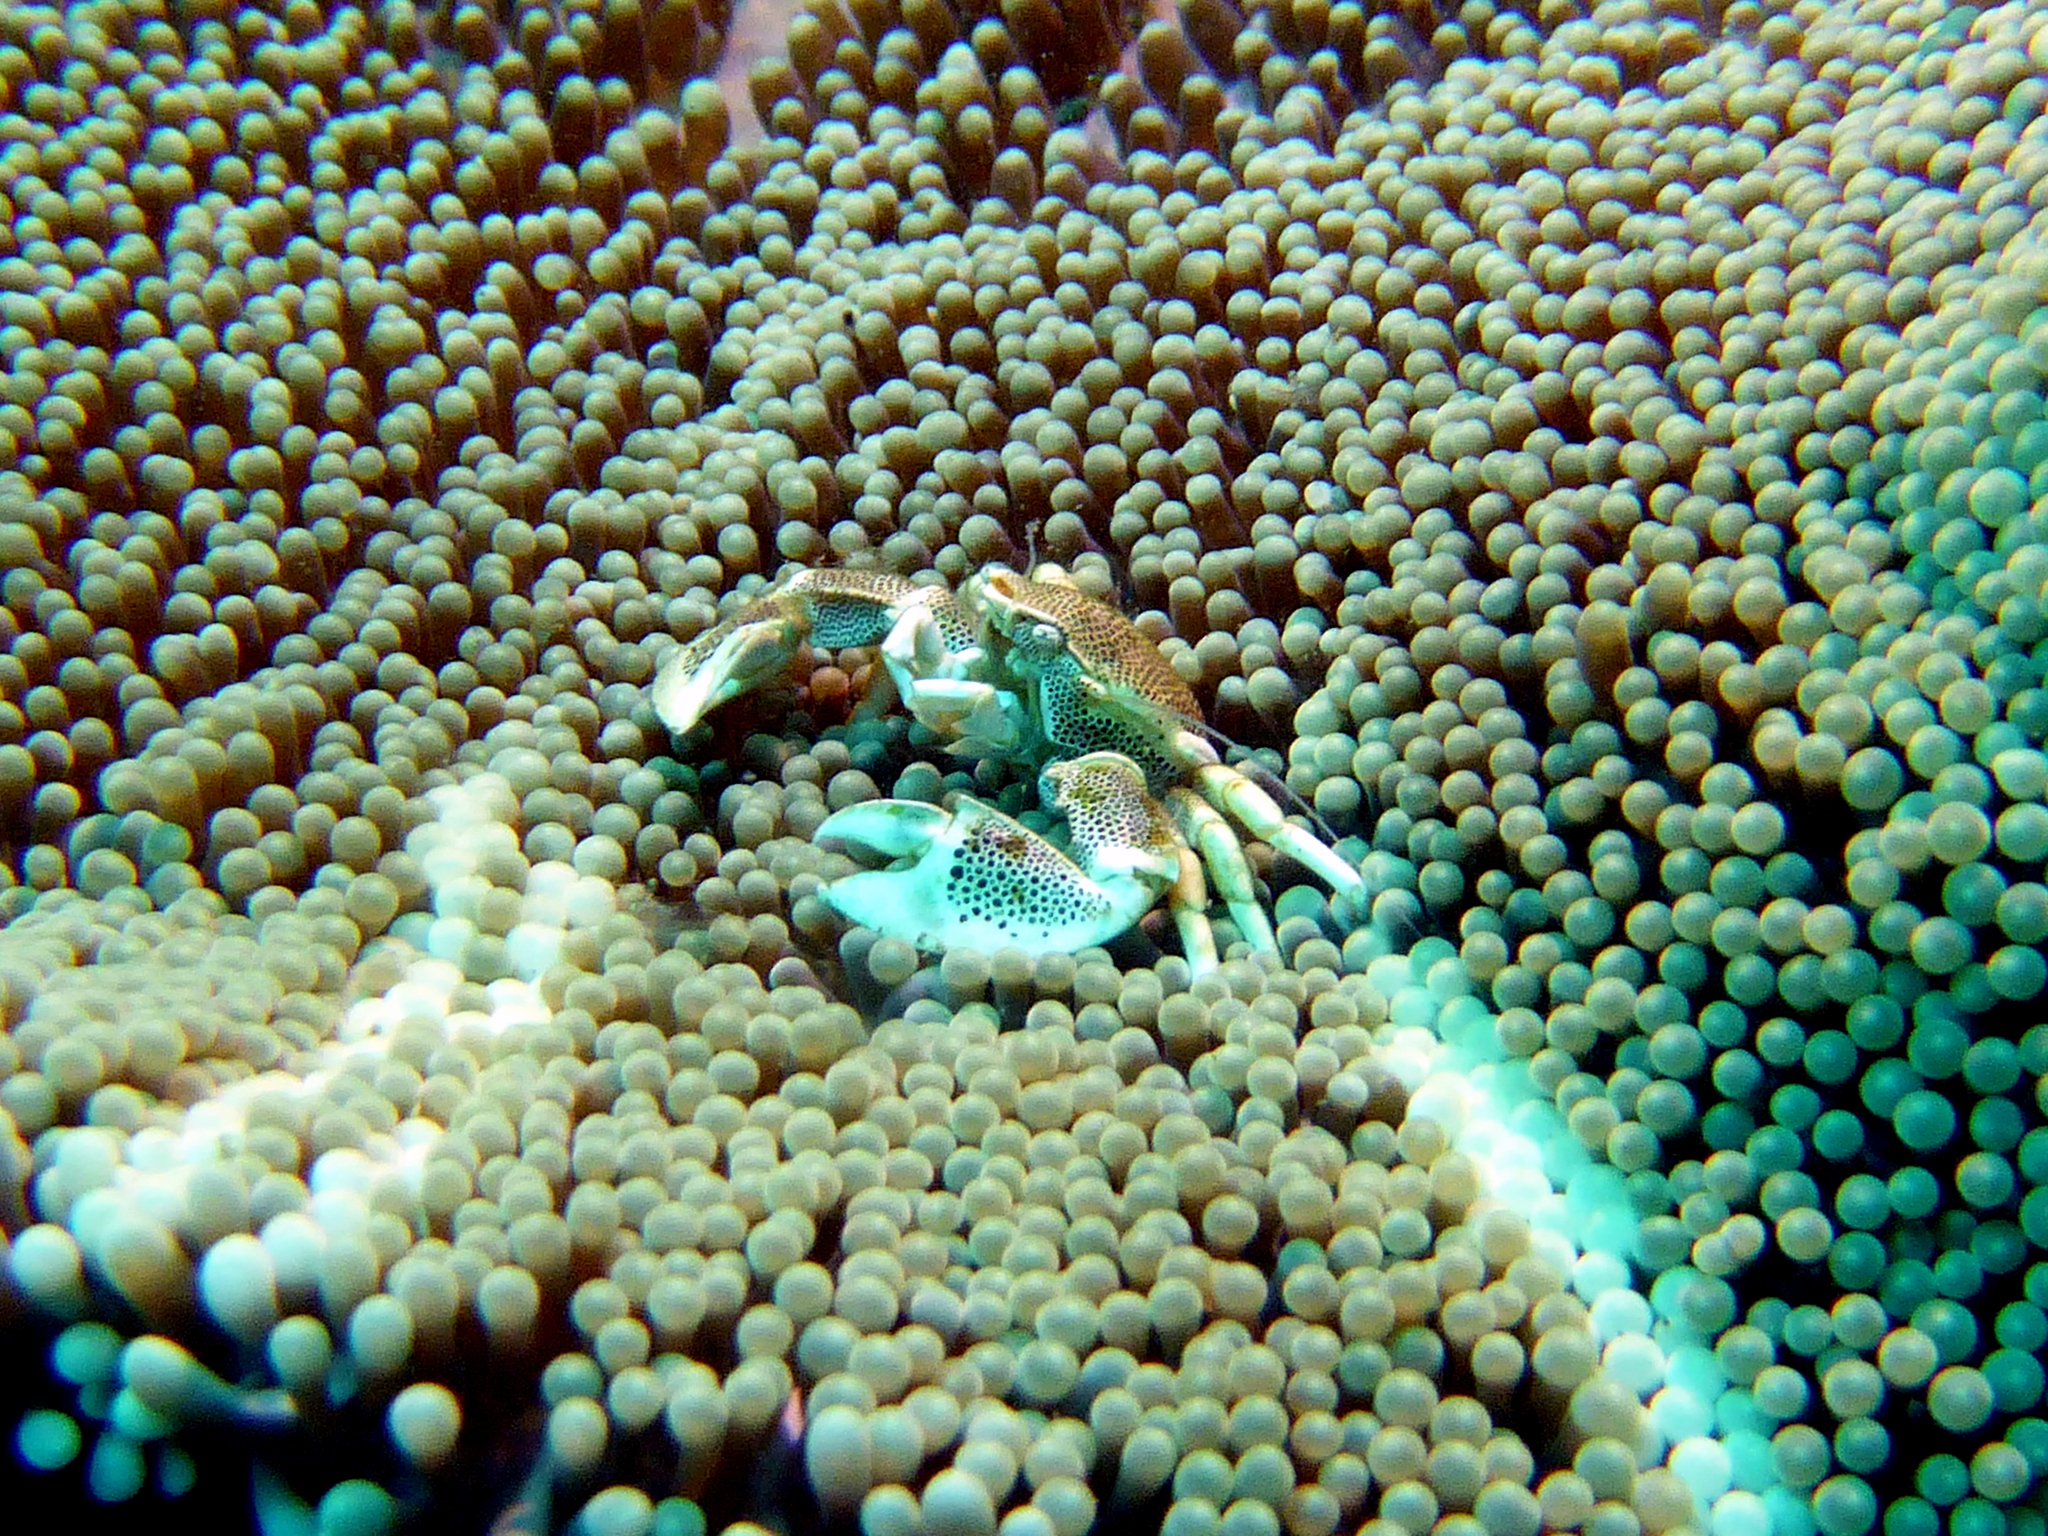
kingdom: Animalia
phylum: Arthropoda
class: Malacostraca
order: Decapoda
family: Porcellanidae
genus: Neopetrolisthes
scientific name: Neopetrolisthes maculatus
